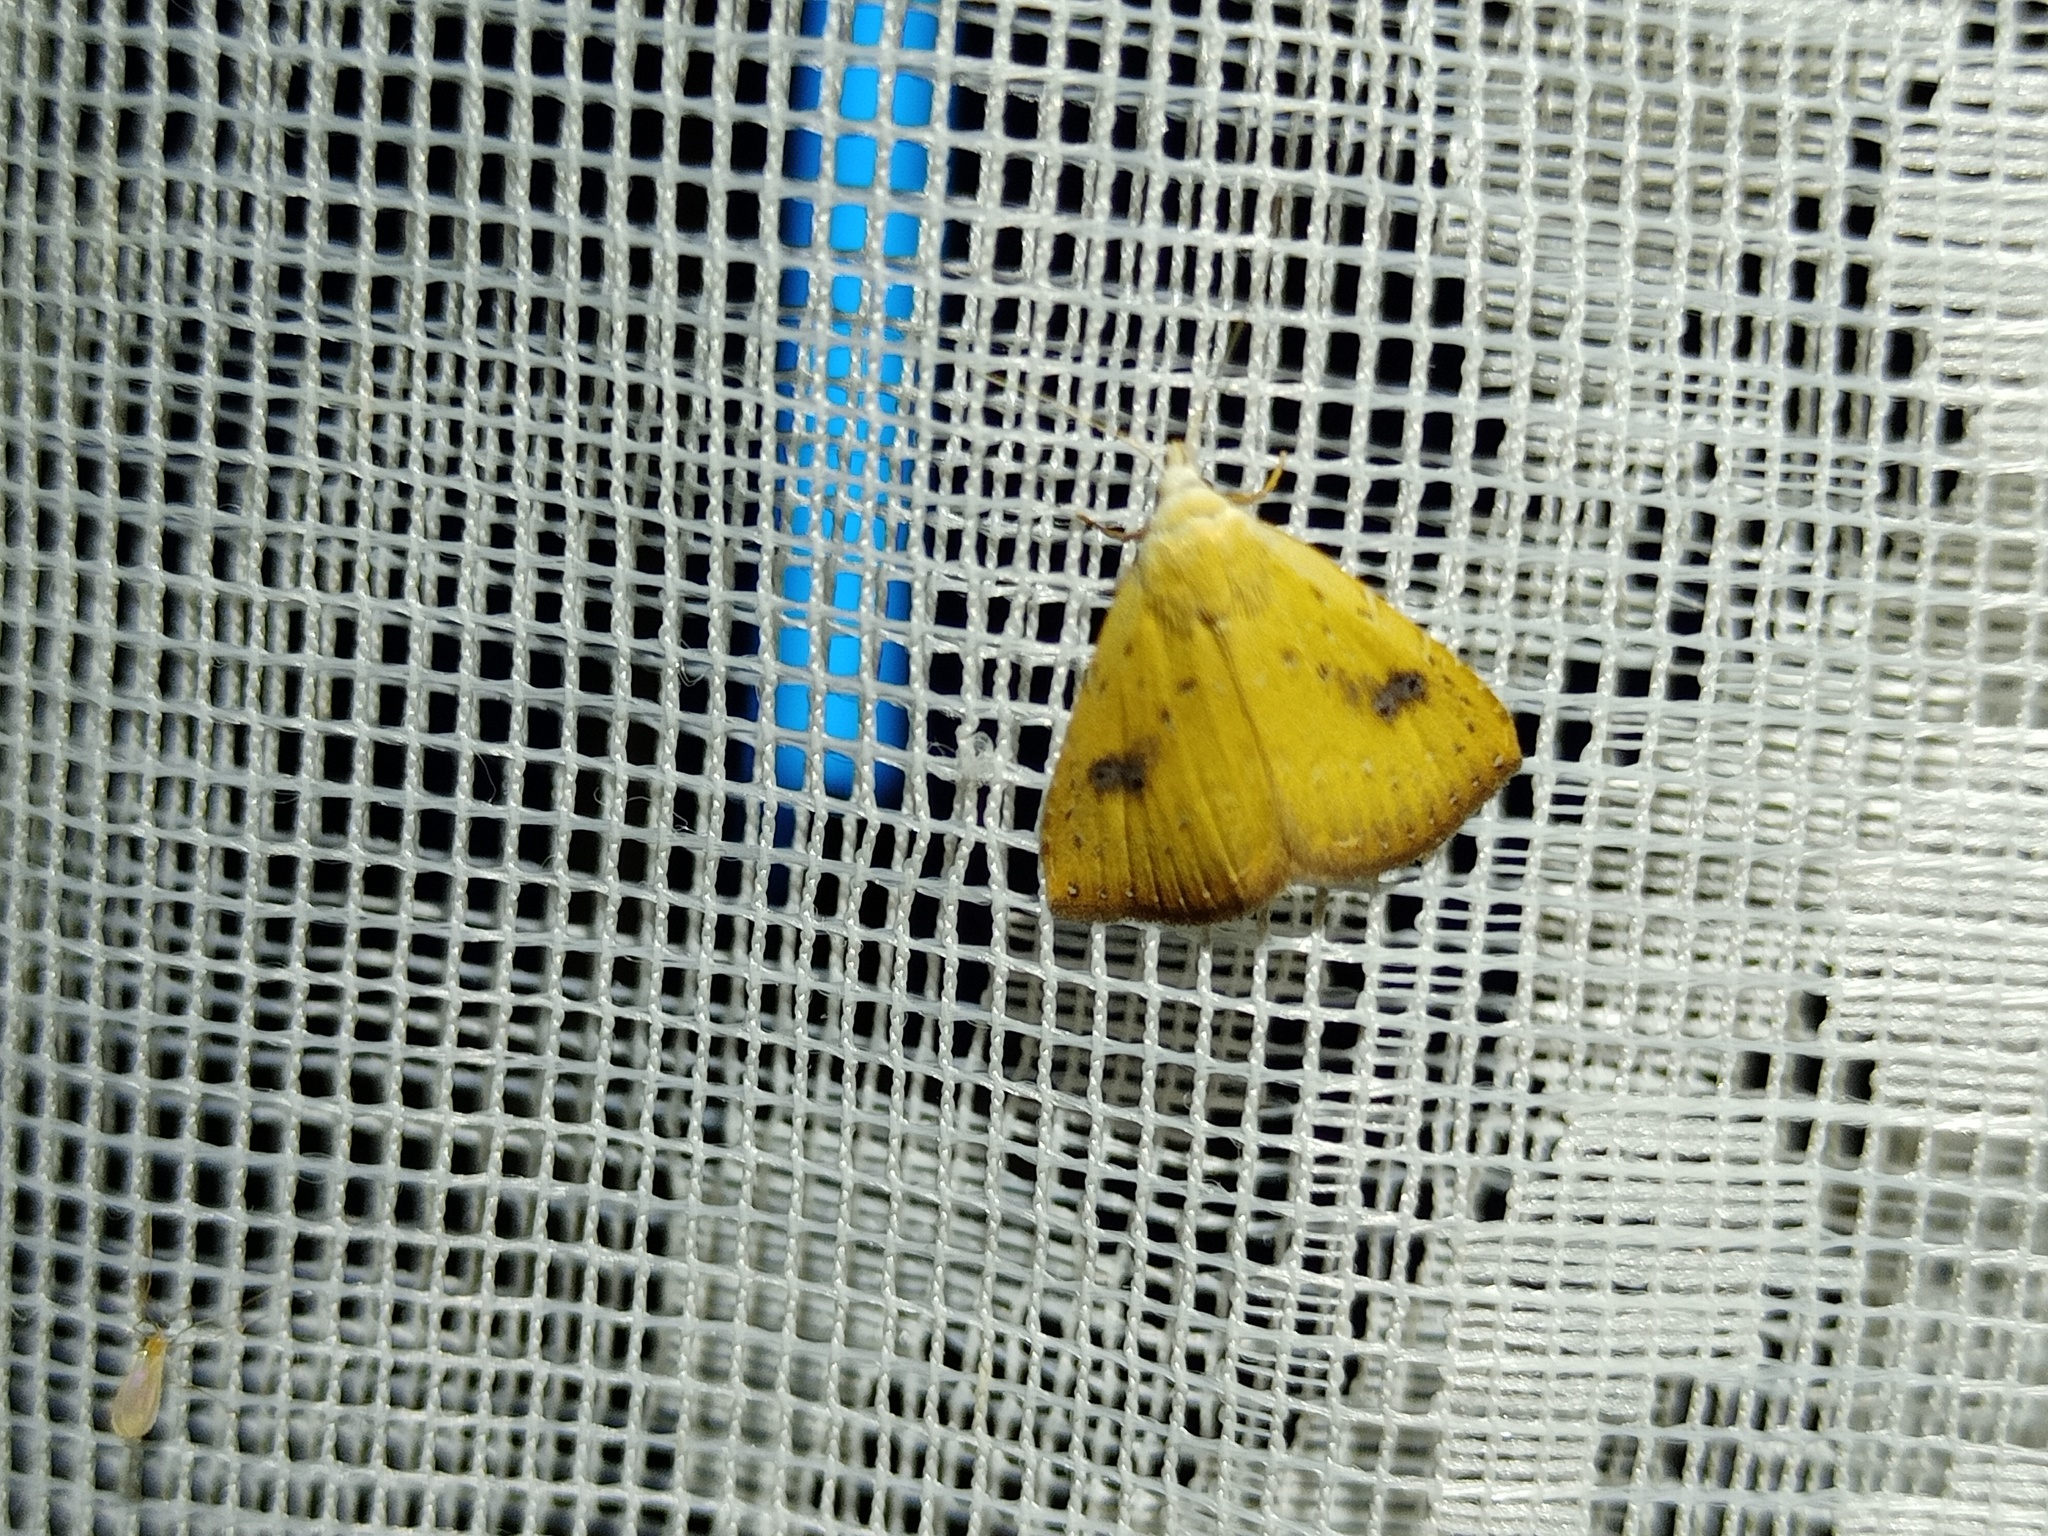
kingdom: Animalia
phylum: Arthropoda
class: Insecta
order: Lepidoptera
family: Erebidae
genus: Rivula
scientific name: Rivula sericealis
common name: Straw dot
